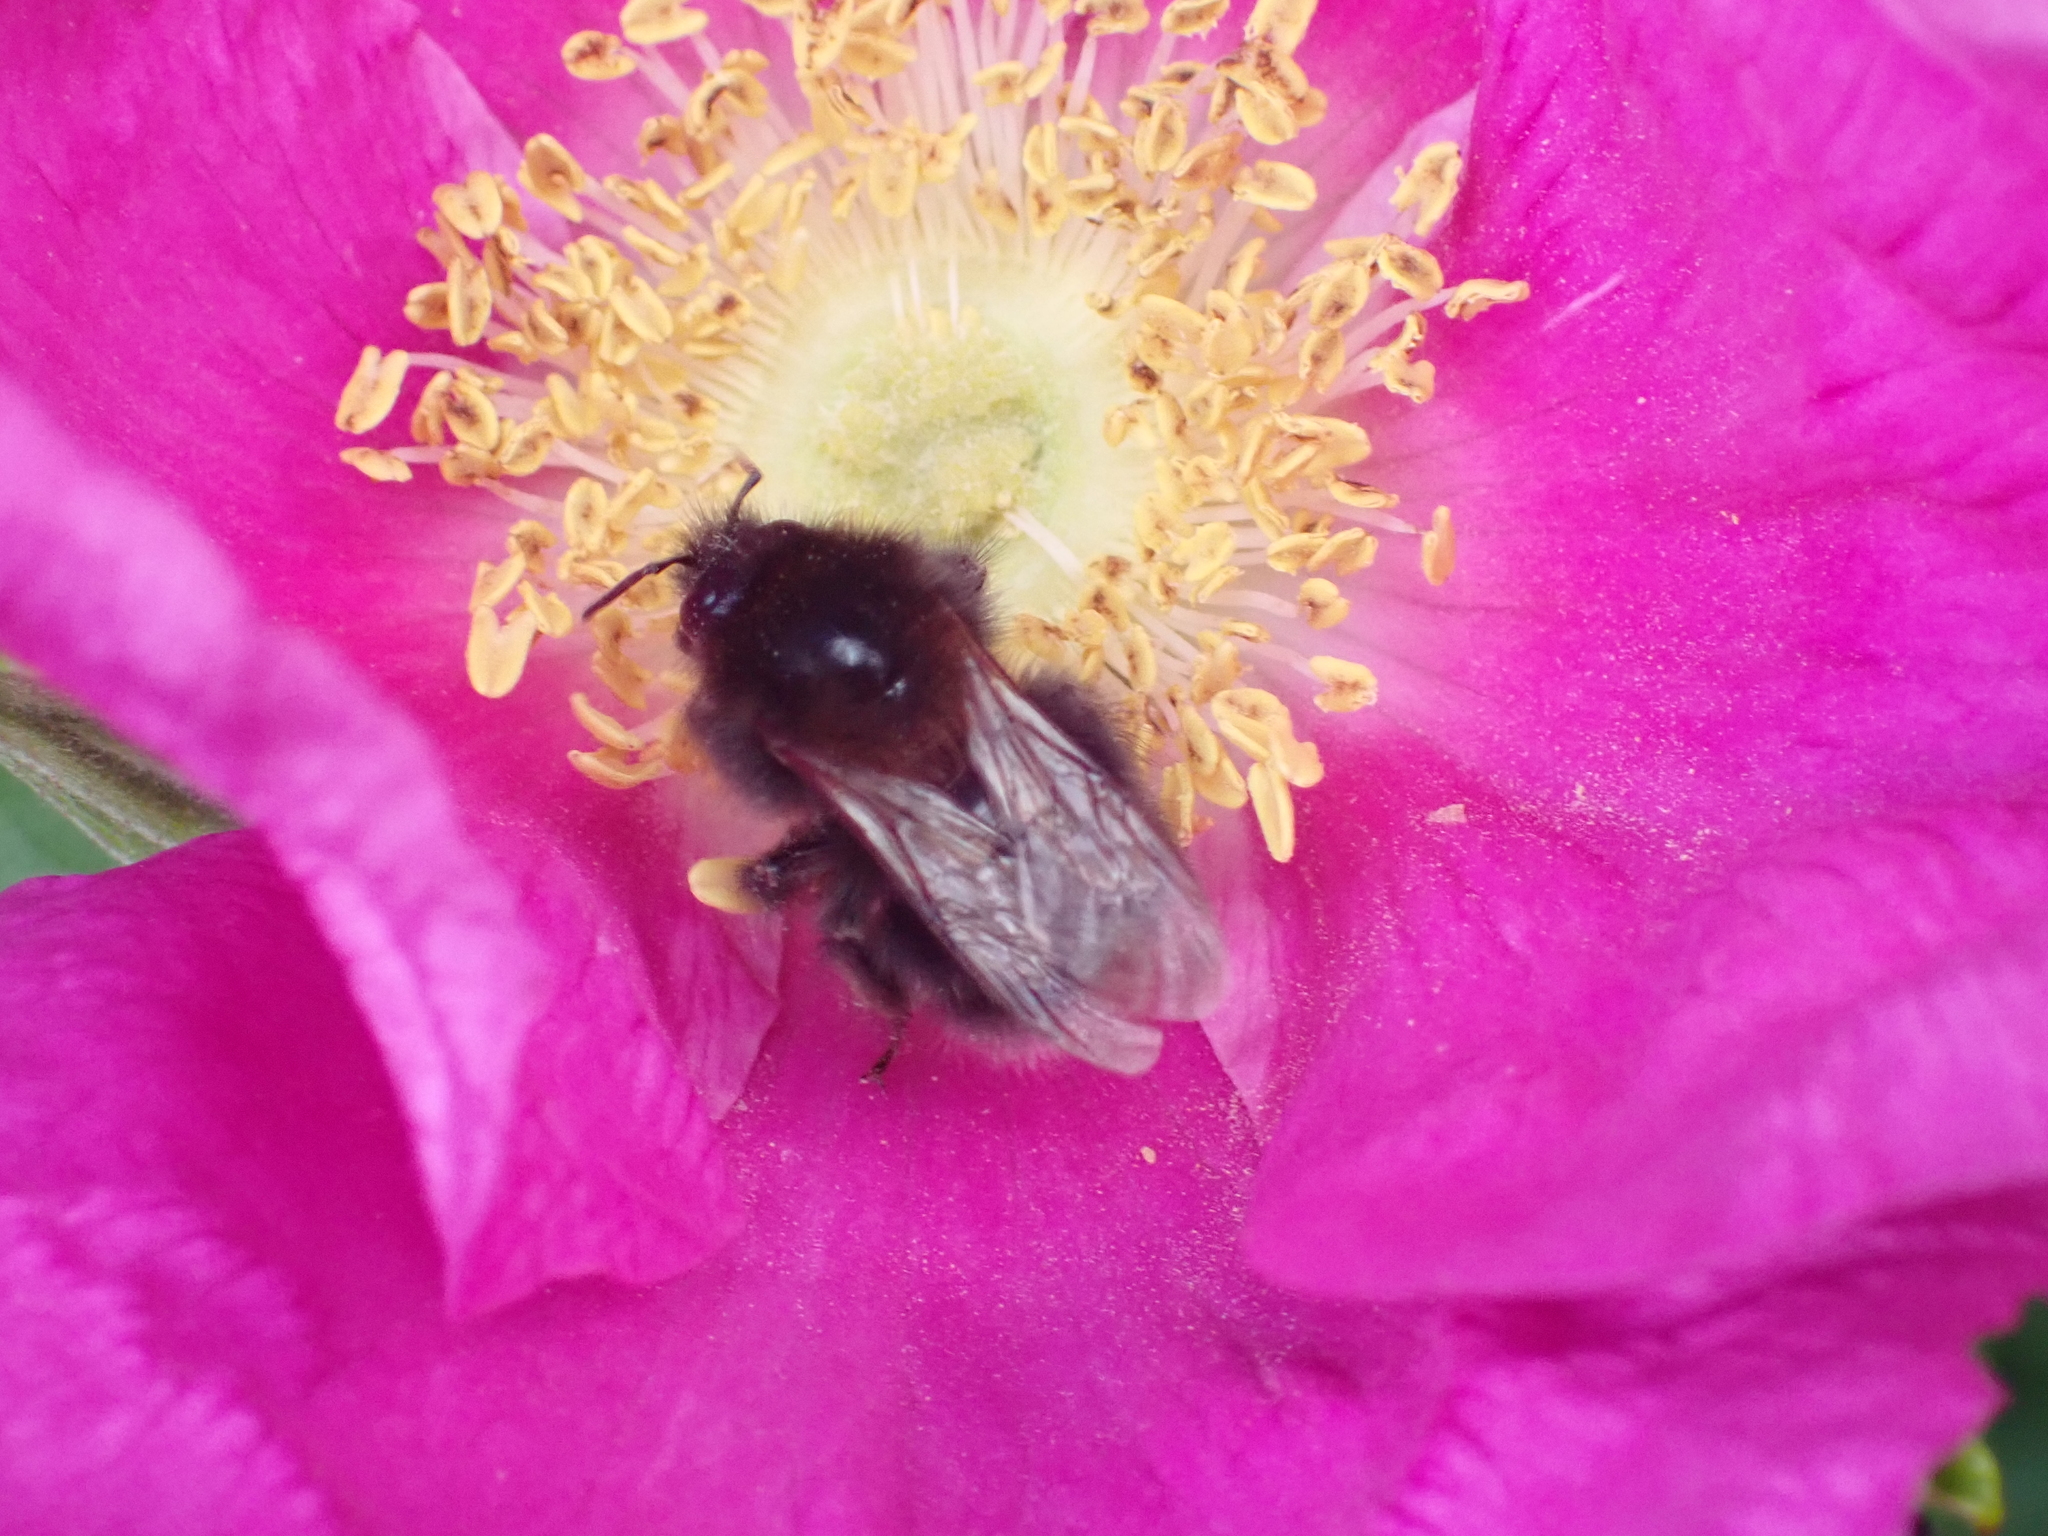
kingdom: Animalia
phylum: Arthropoda
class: Insecta
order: Hymenoptera
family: Apidae
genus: Bombus
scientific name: Bombus hypnorum
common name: New garden bumblebee
